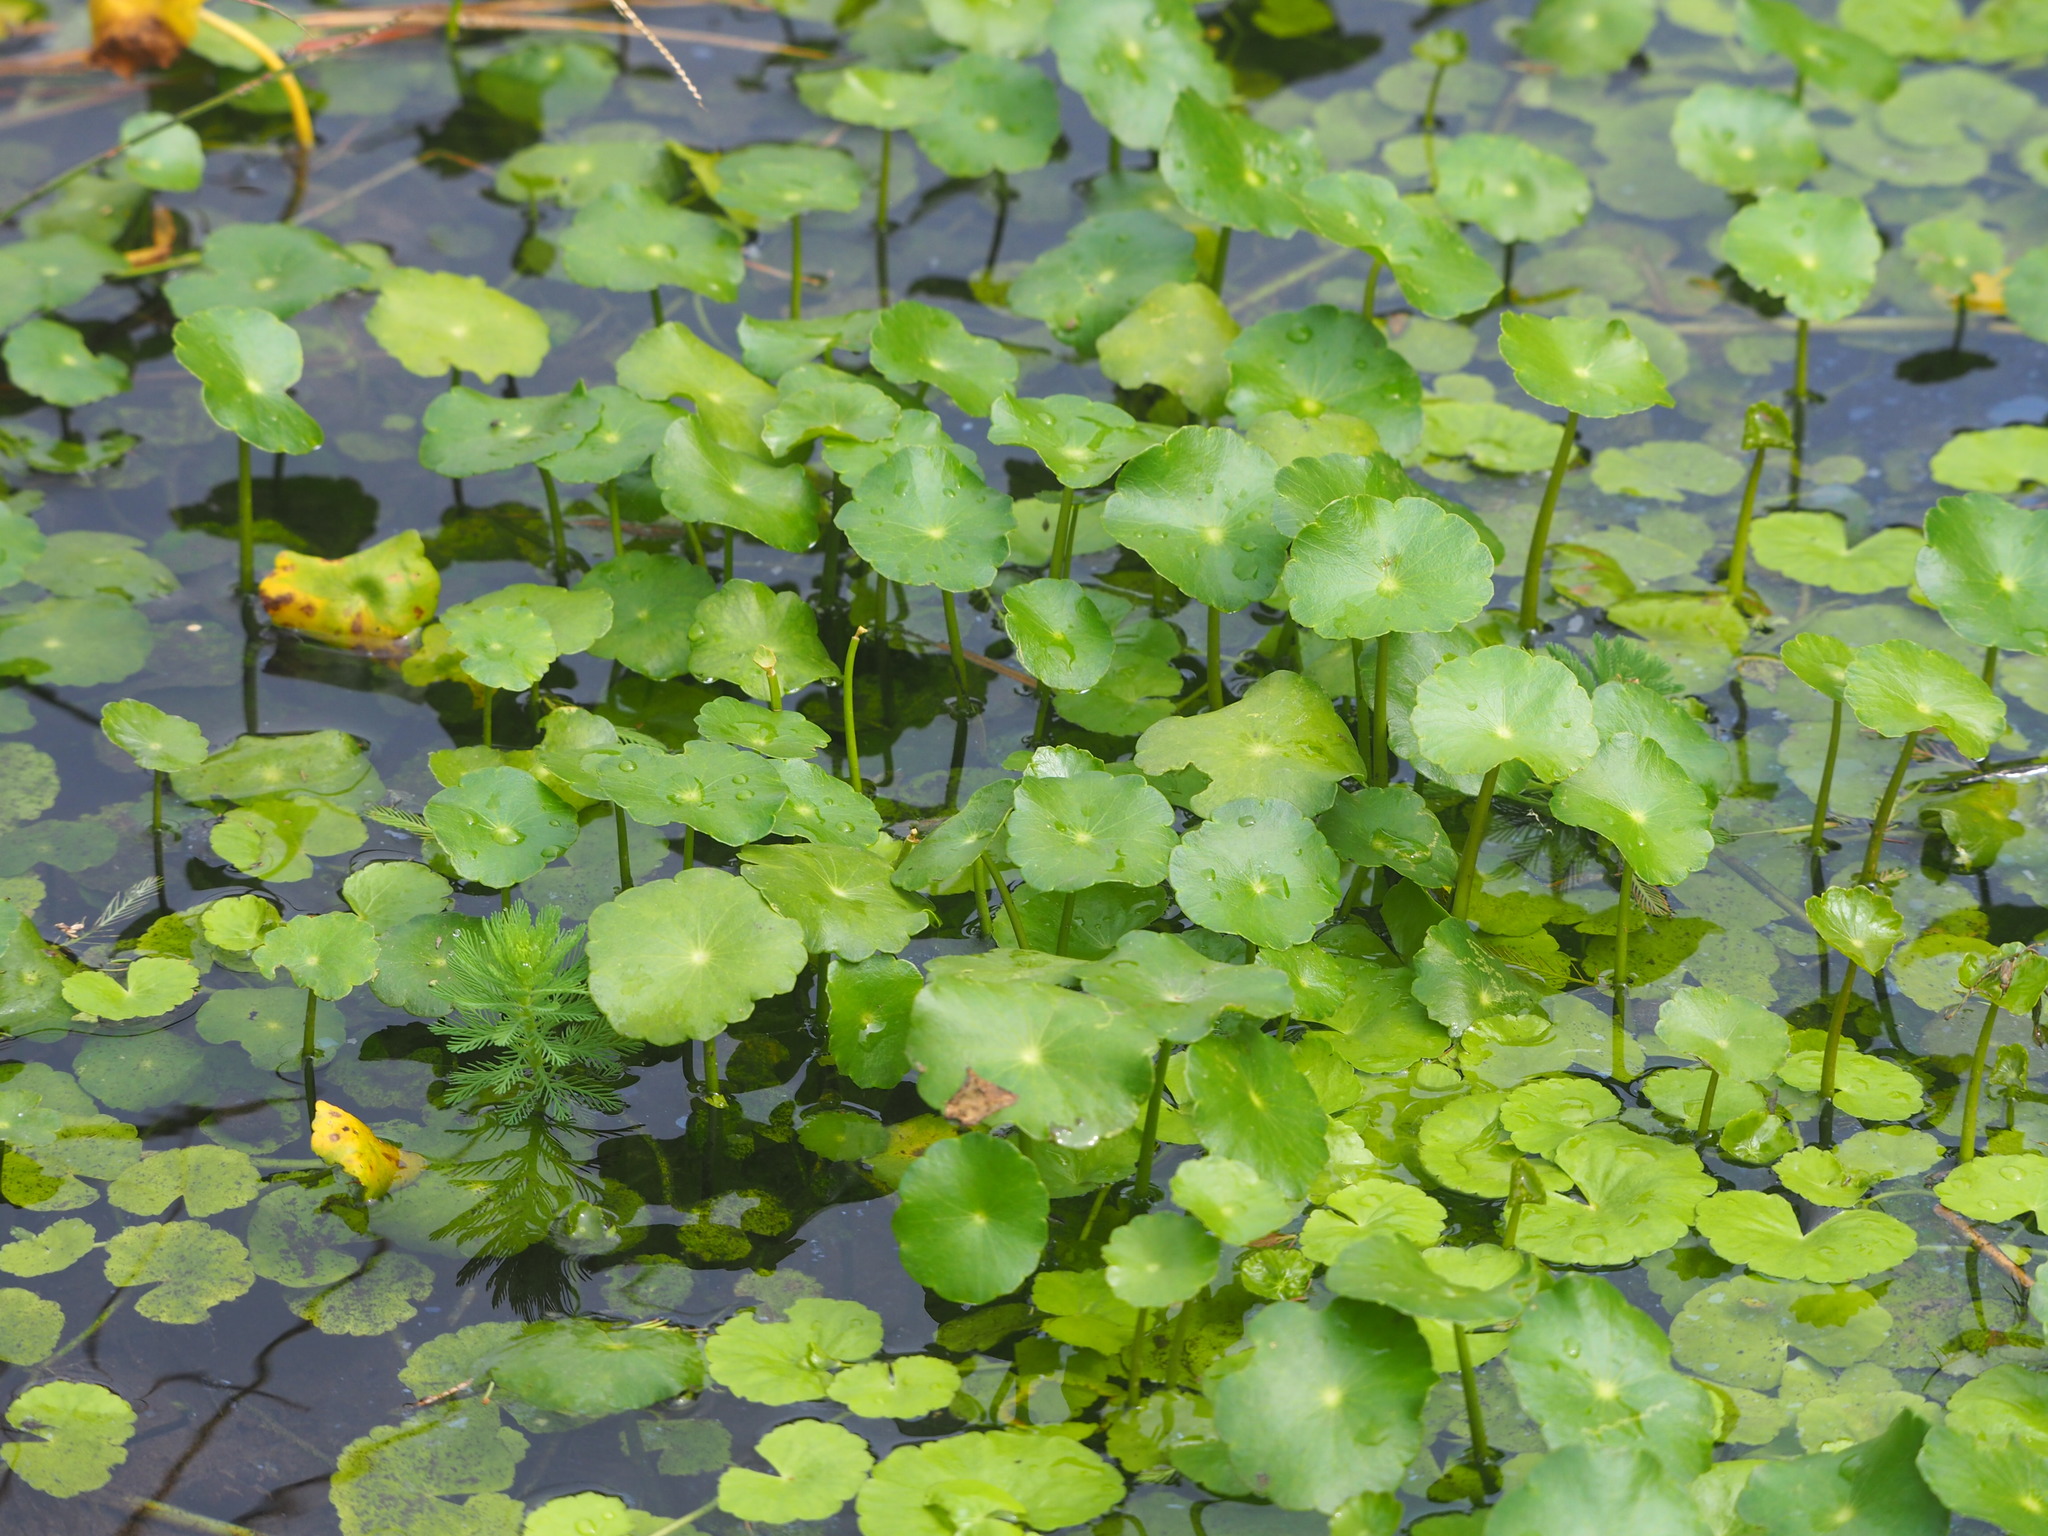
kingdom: Plantae
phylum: Tracheophyta
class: Magnoliopsida
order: Apiales
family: Araliaceae
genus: Hydrocotyle
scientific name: Hydrocotyle verticillata
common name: Whorled marshpennywort
